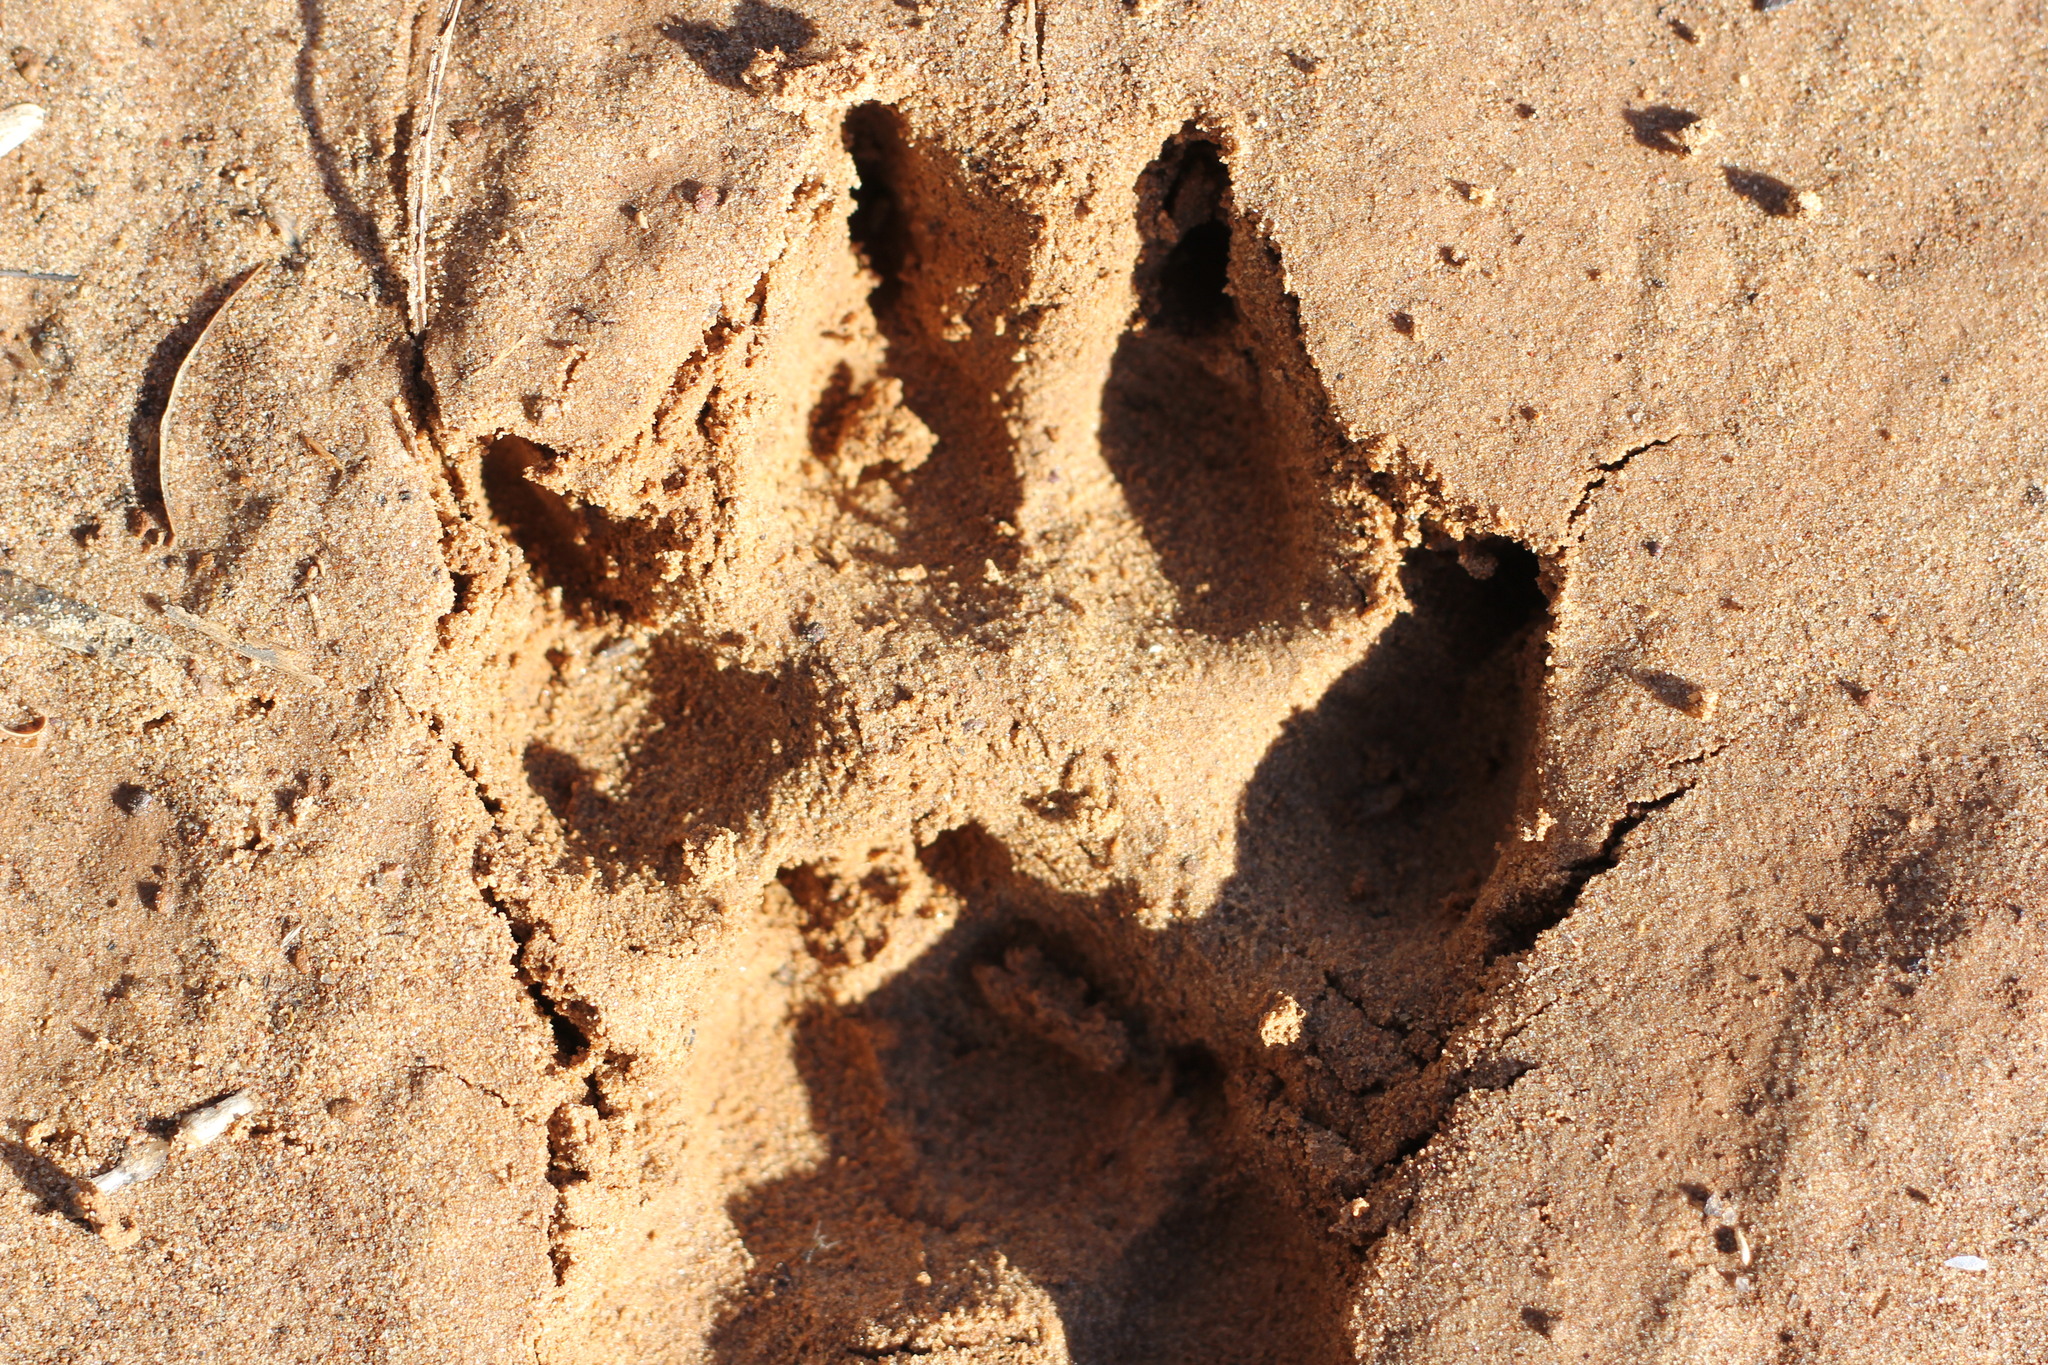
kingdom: Animalia
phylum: Chordata
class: Mammalia
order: Carnivora
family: Canidae
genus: Canis
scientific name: Canis lupus
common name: Gray wolf
